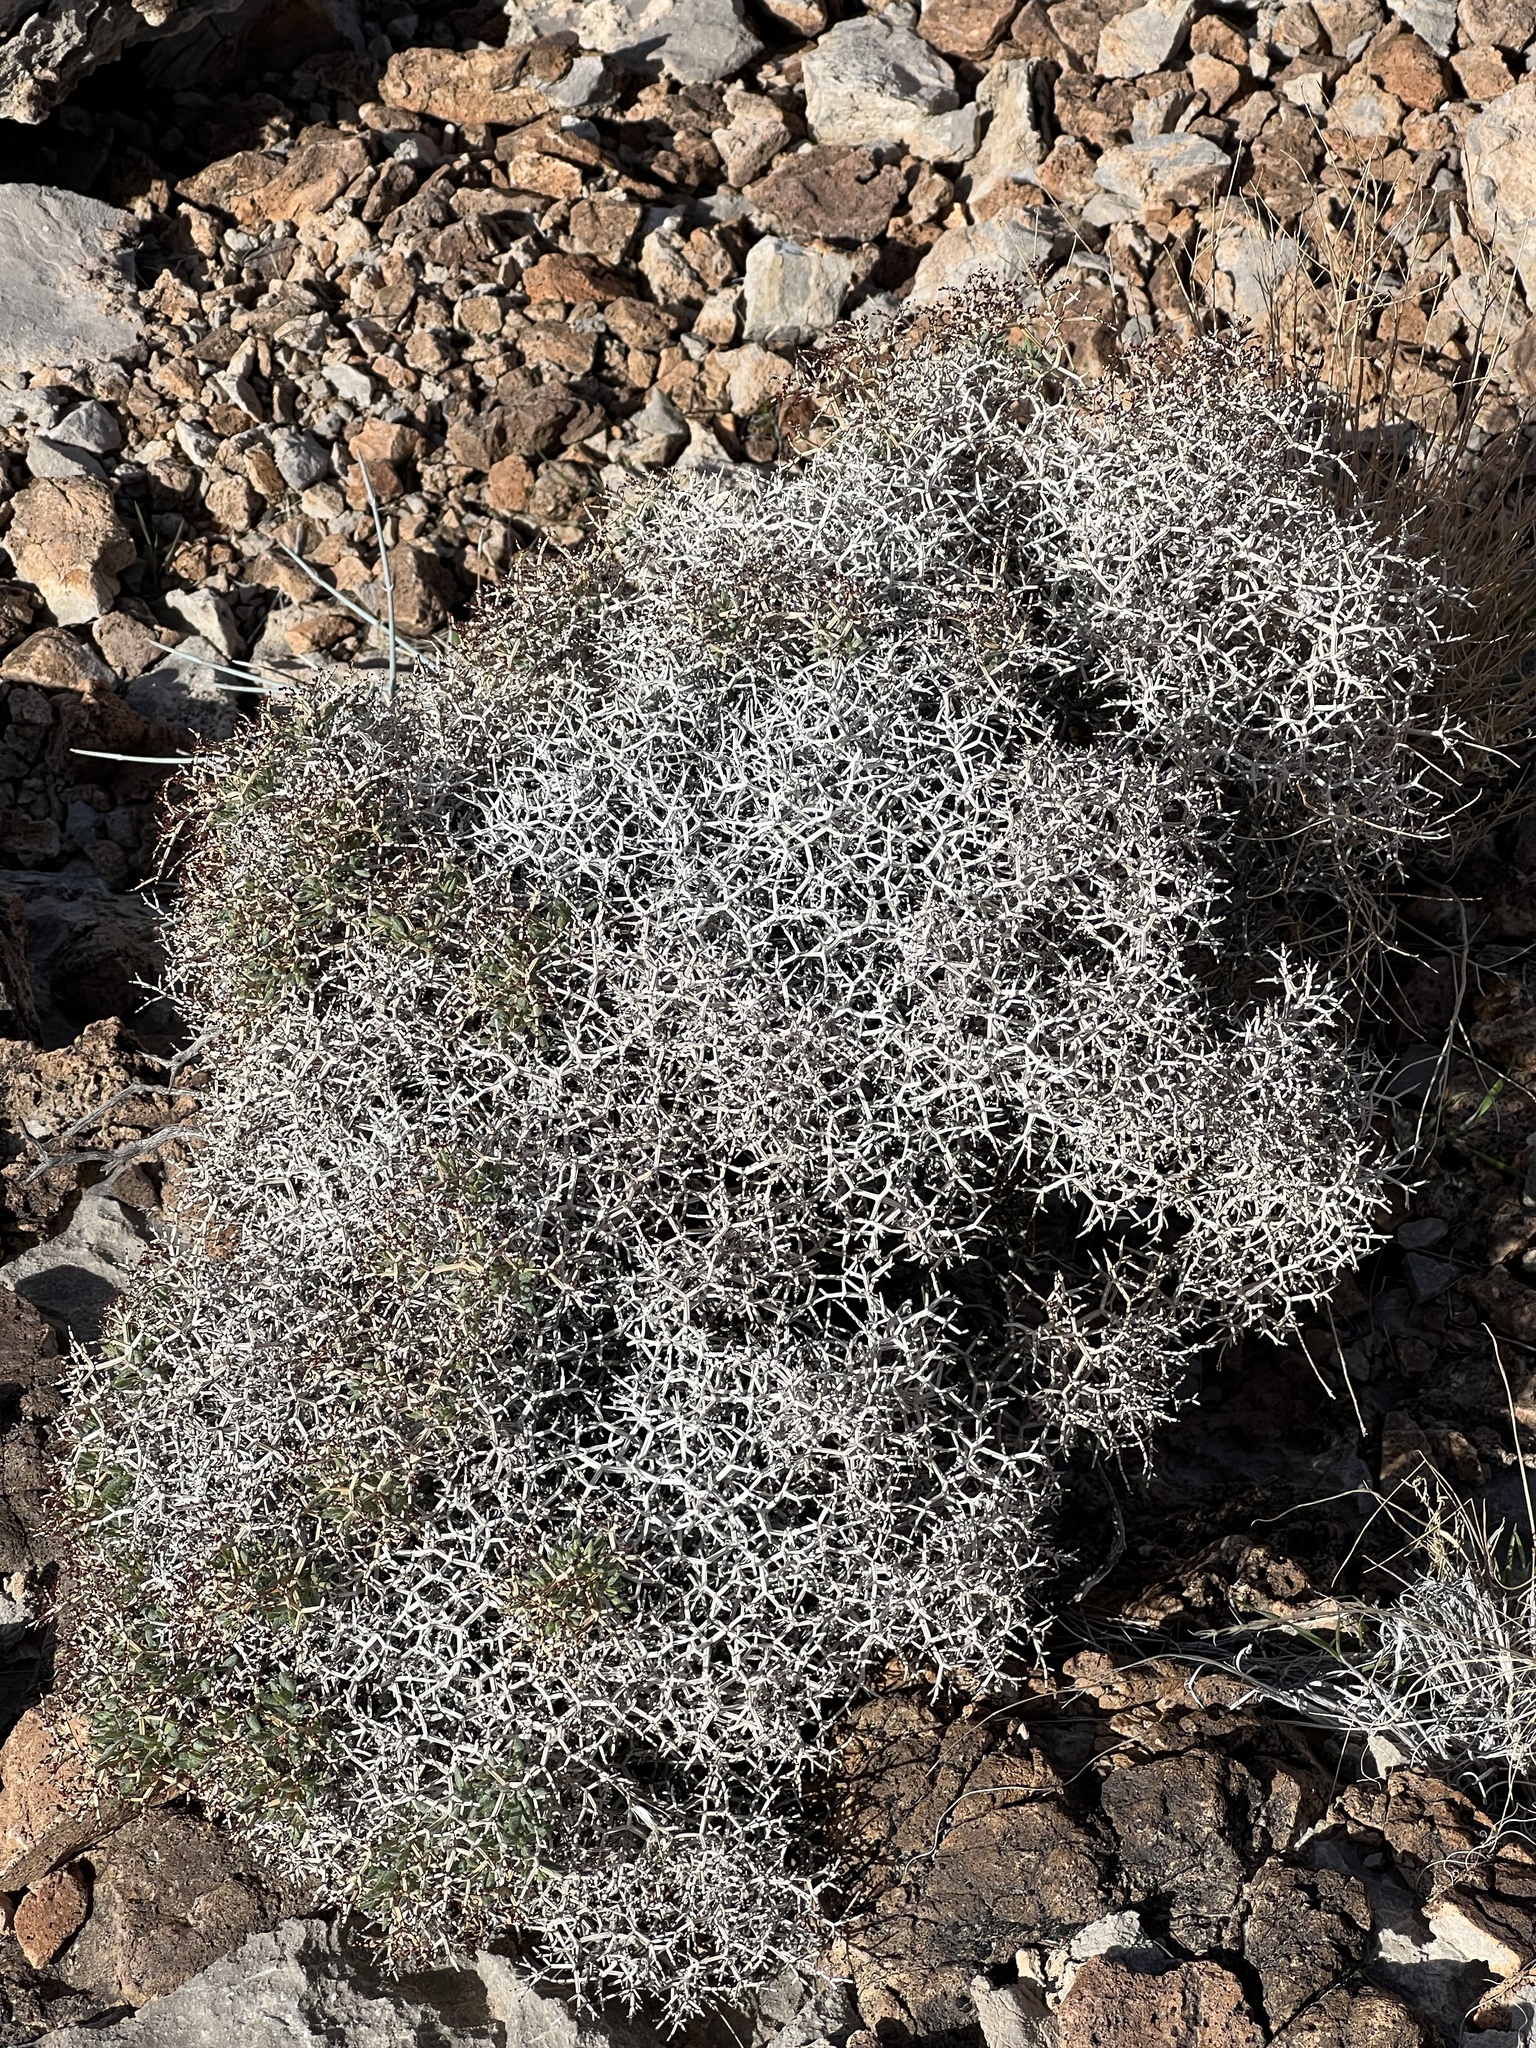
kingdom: Plantae
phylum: Tracheophyta
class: Magnoliopsida
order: Caryophyllales
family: Polygonaceae
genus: Eriogonum
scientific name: Eriogonum heermannii
